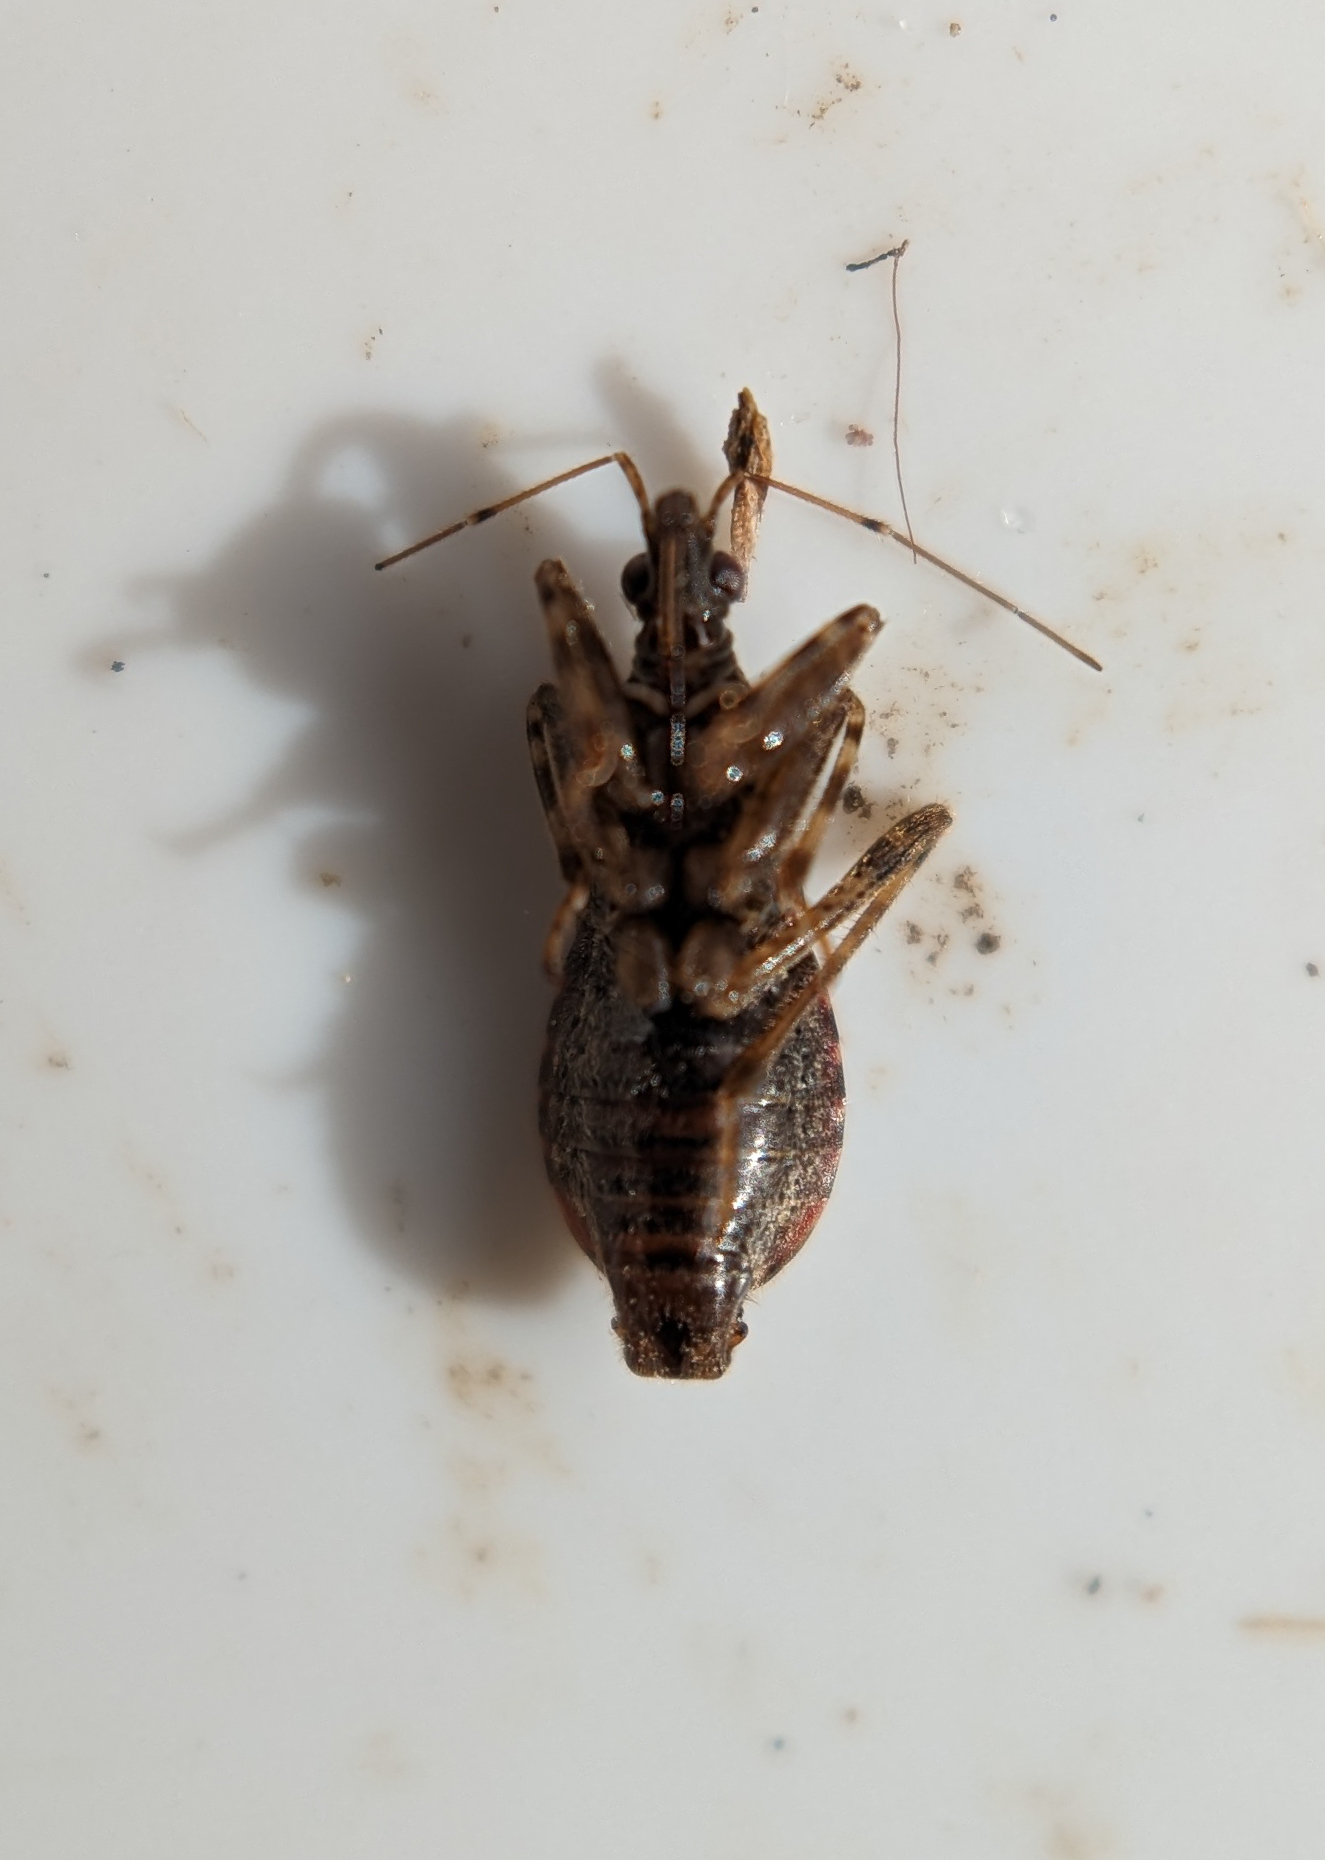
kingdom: Animalia
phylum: Arthropoda
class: Insecta
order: Hemiptera
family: Nabidae
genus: Himacerus
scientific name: Himacerus mirmicoides
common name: Ant damsel bug
